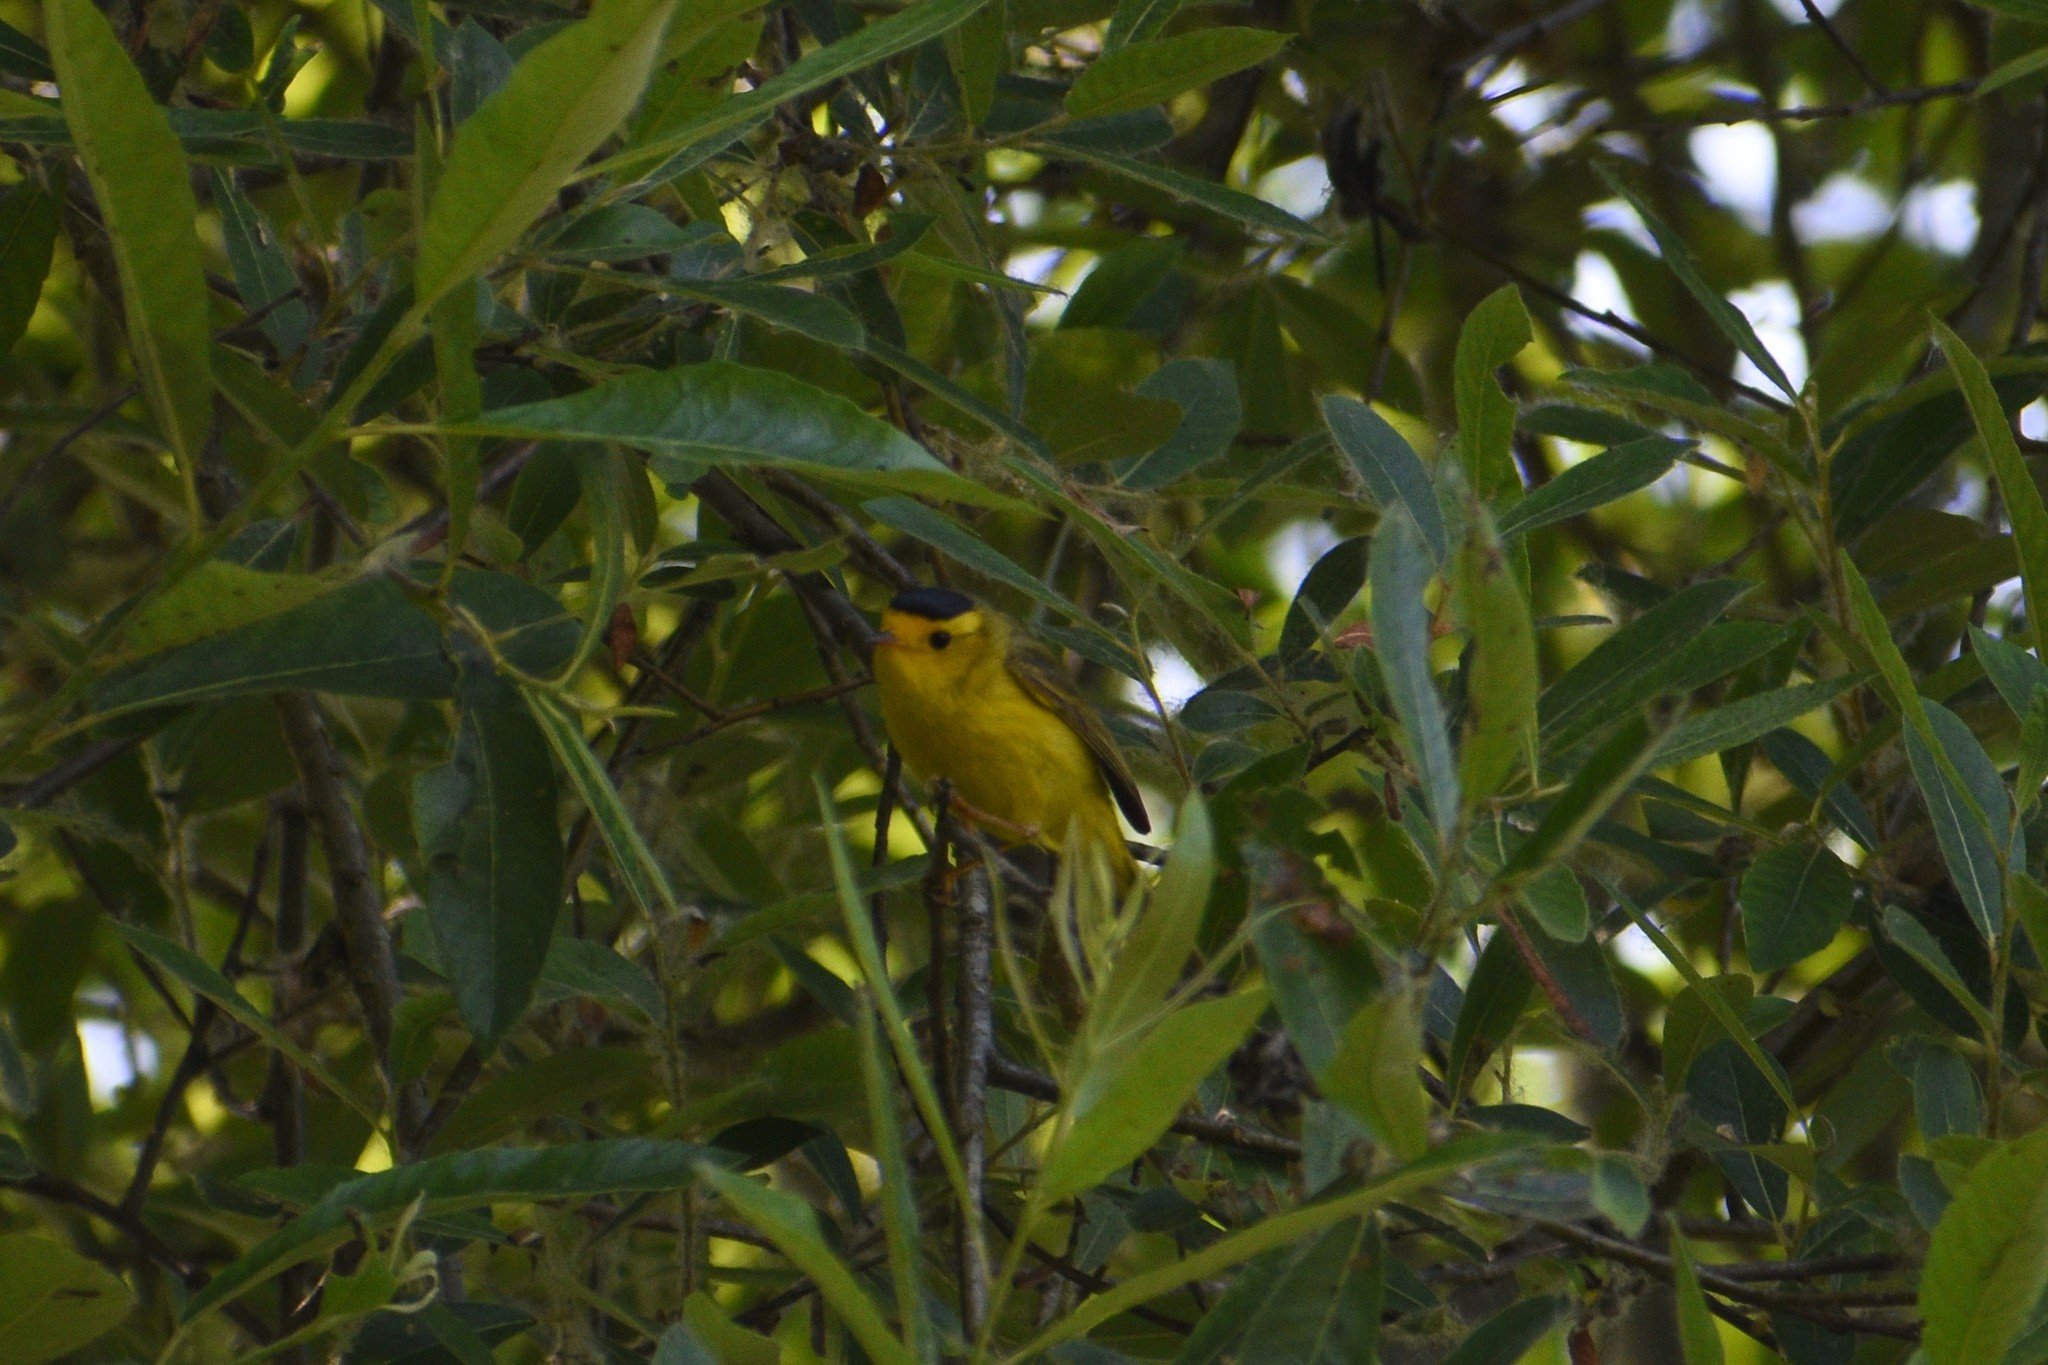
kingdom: Animalia
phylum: Chordata
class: Aves
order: Passeriformes
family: Parulidae
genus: Cardellina
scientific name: Cardellina pusilla
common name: Wilson's warbler
